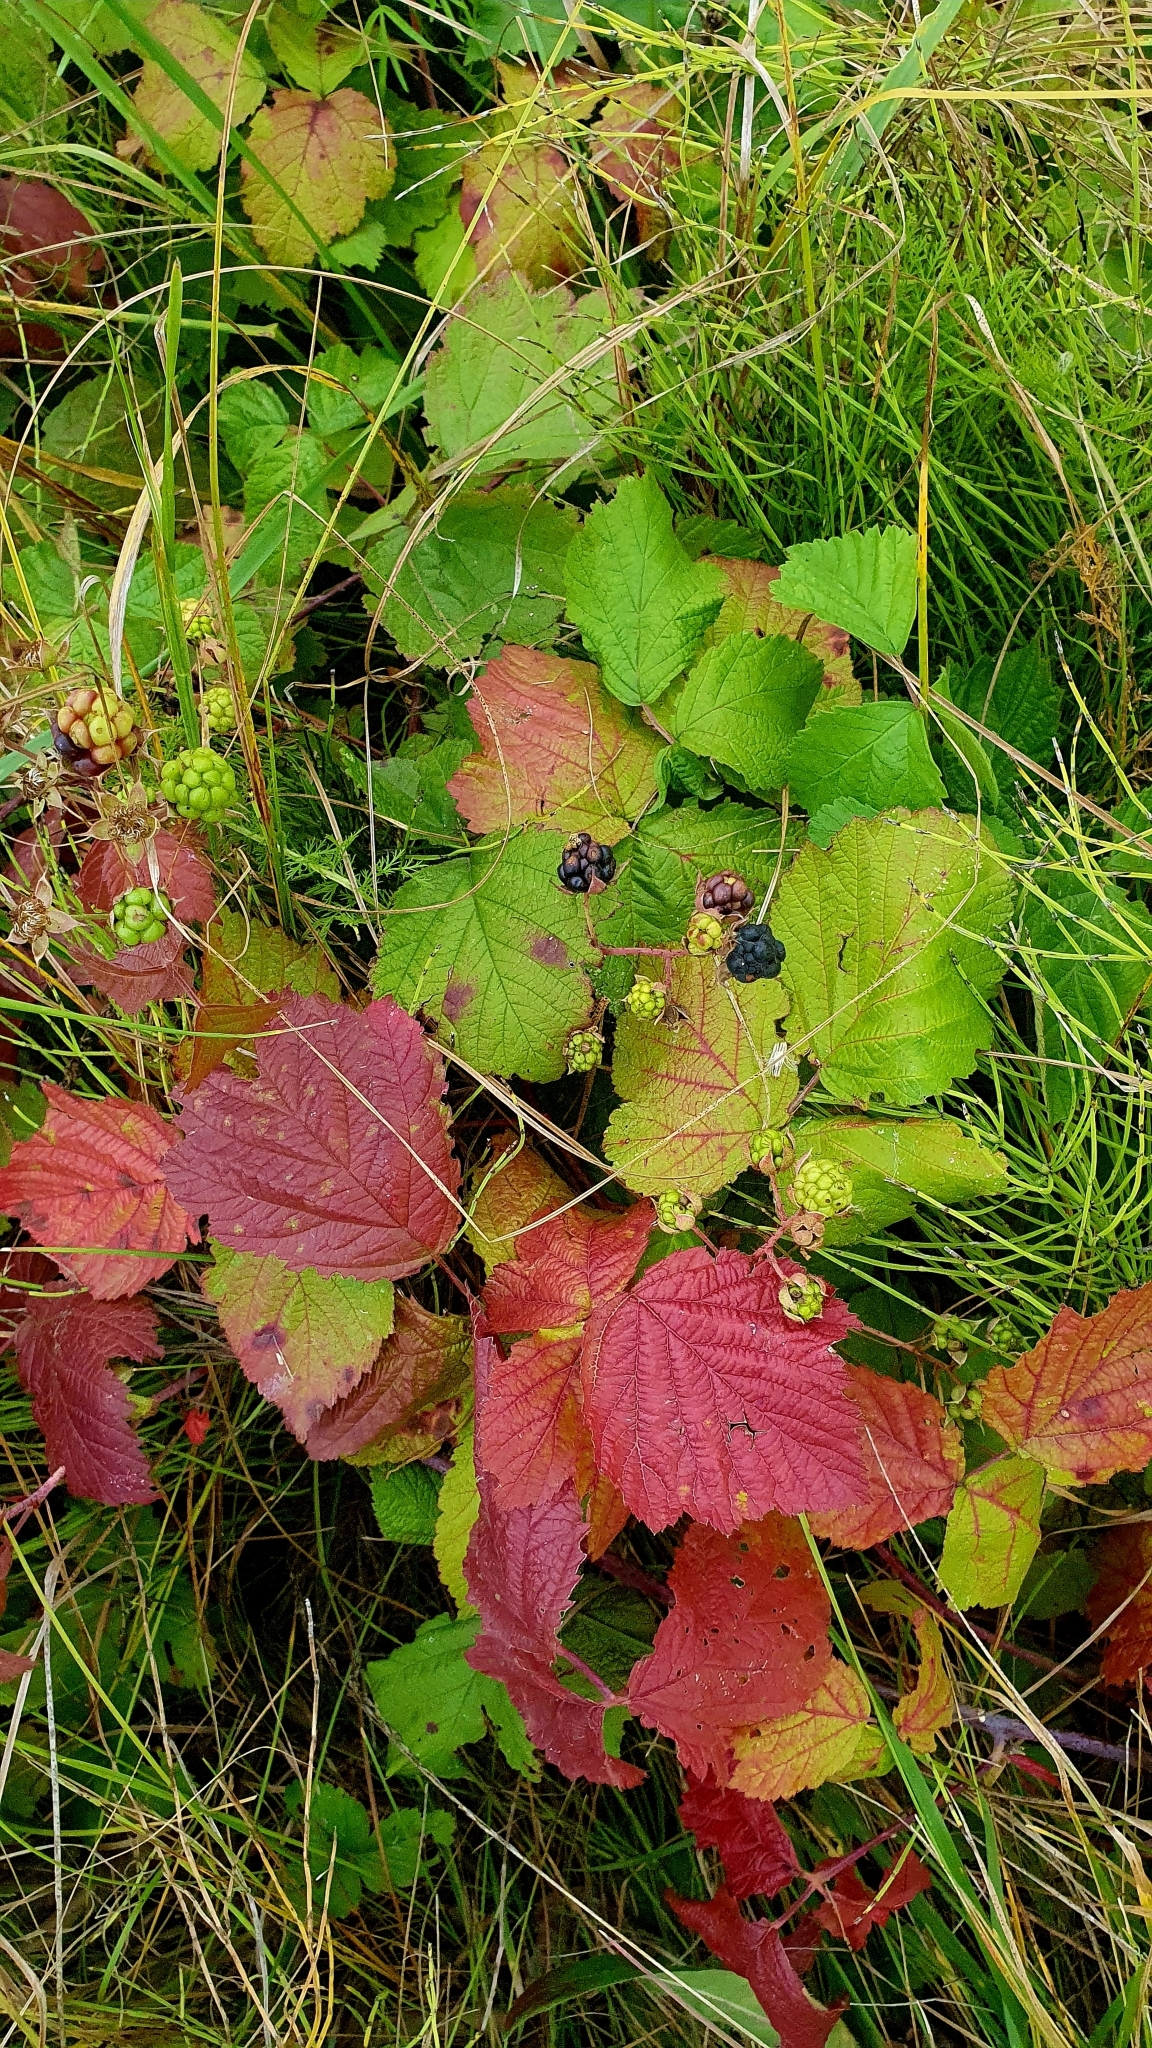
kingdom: Plantae
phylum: Tracheophyta
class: Magnoliopsida
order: Rosales
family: Rosaceae
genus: Rubus
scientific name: Rubus caesius
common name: Dewberry
